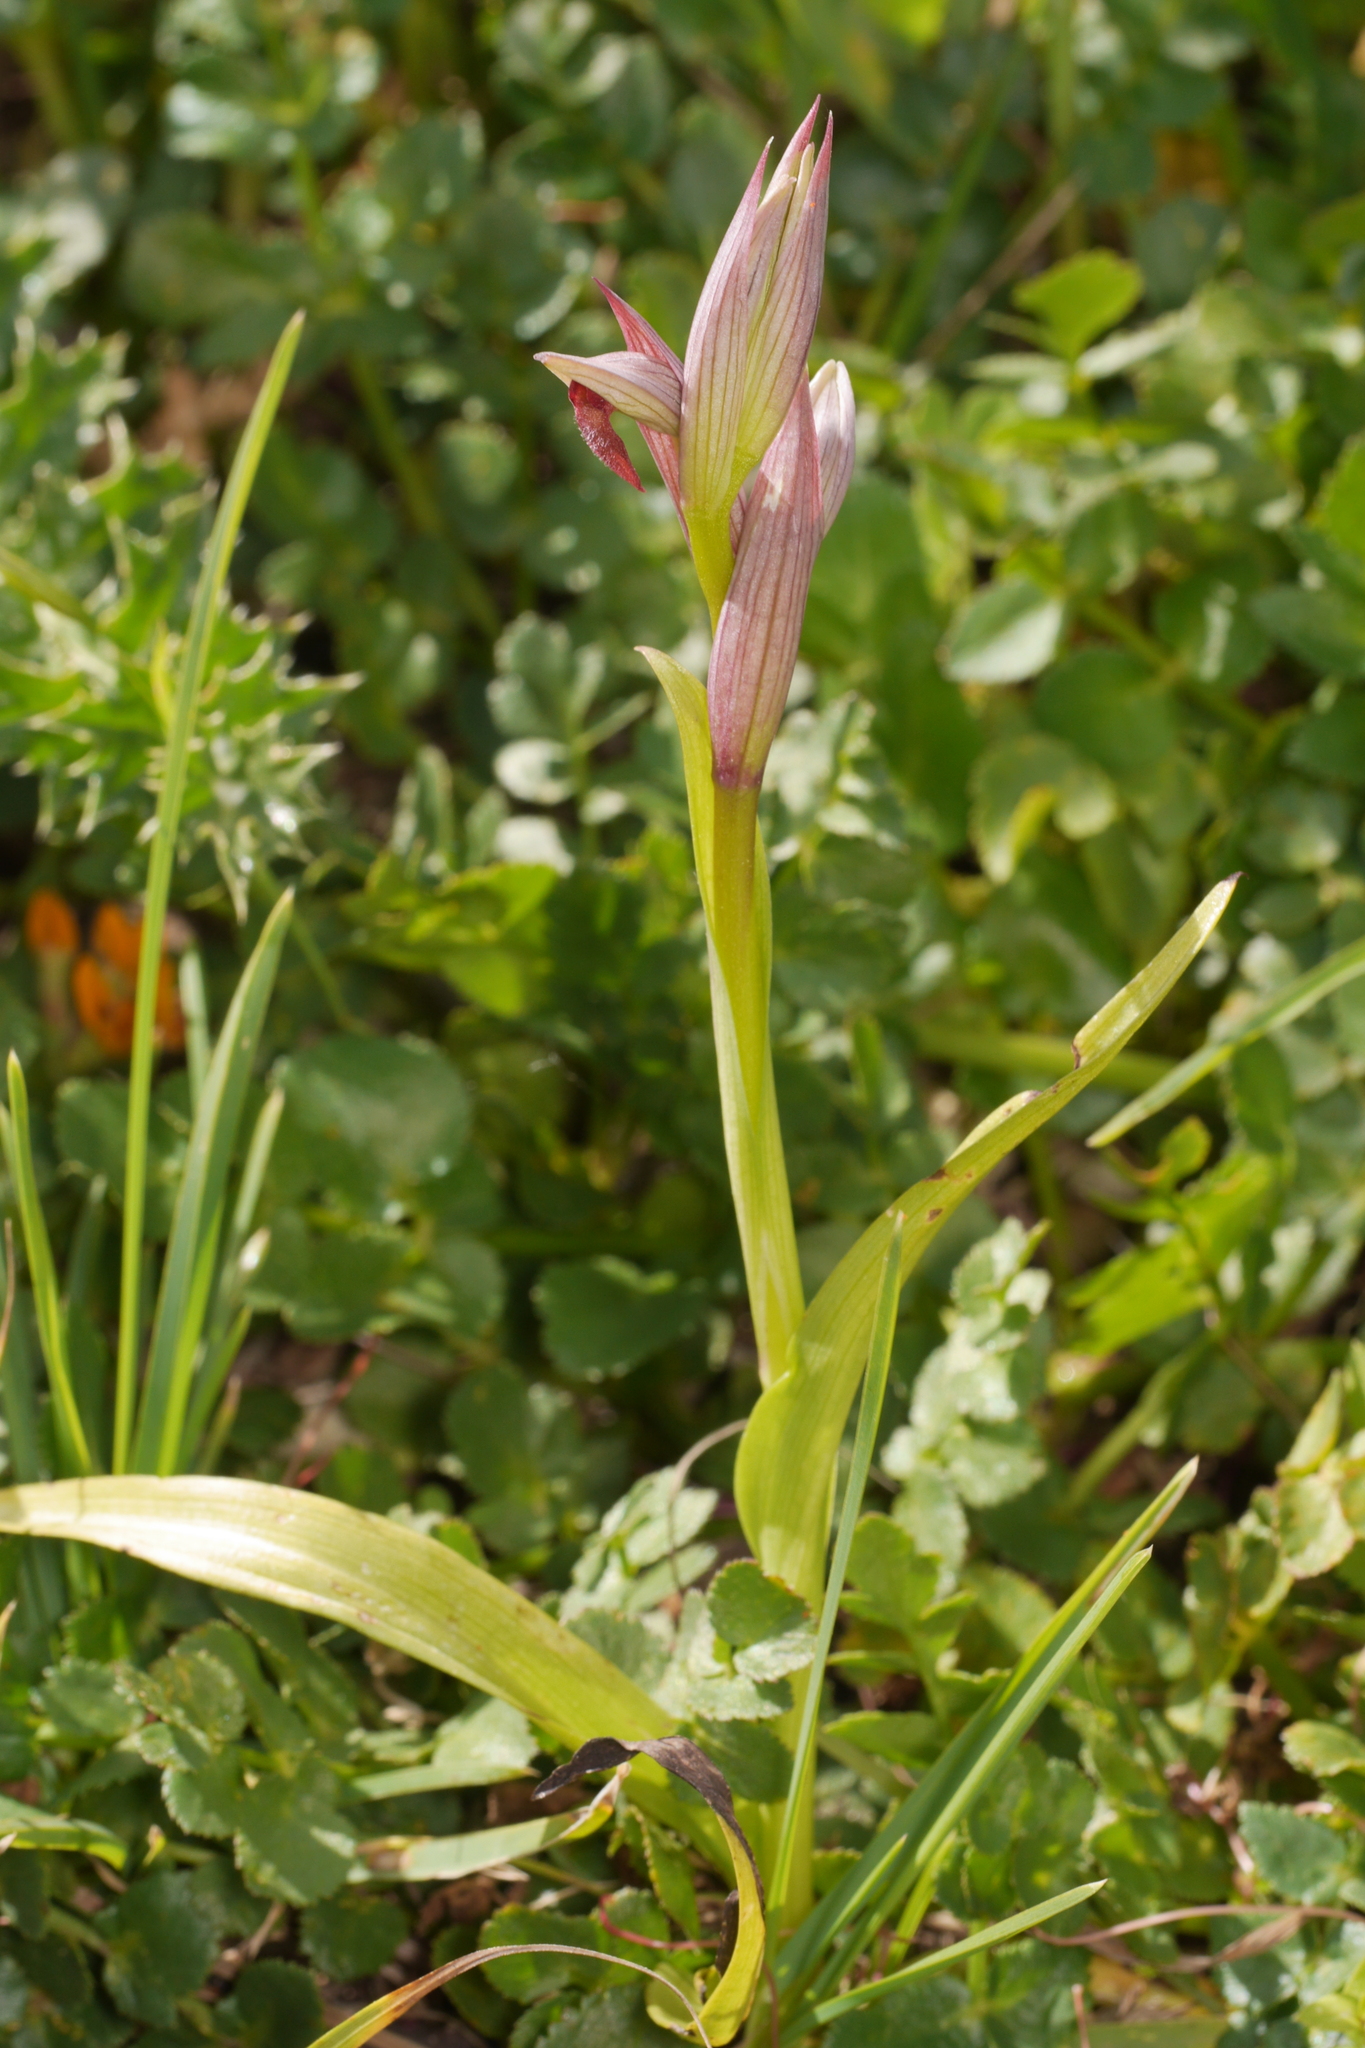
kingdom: Plantae
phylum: Tracheophyta
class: Liliopsida
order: Asparagales
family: Orchidaceae
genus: Serapias
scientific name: Serapias parviflora
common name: Small-flowered tongue-orchid
